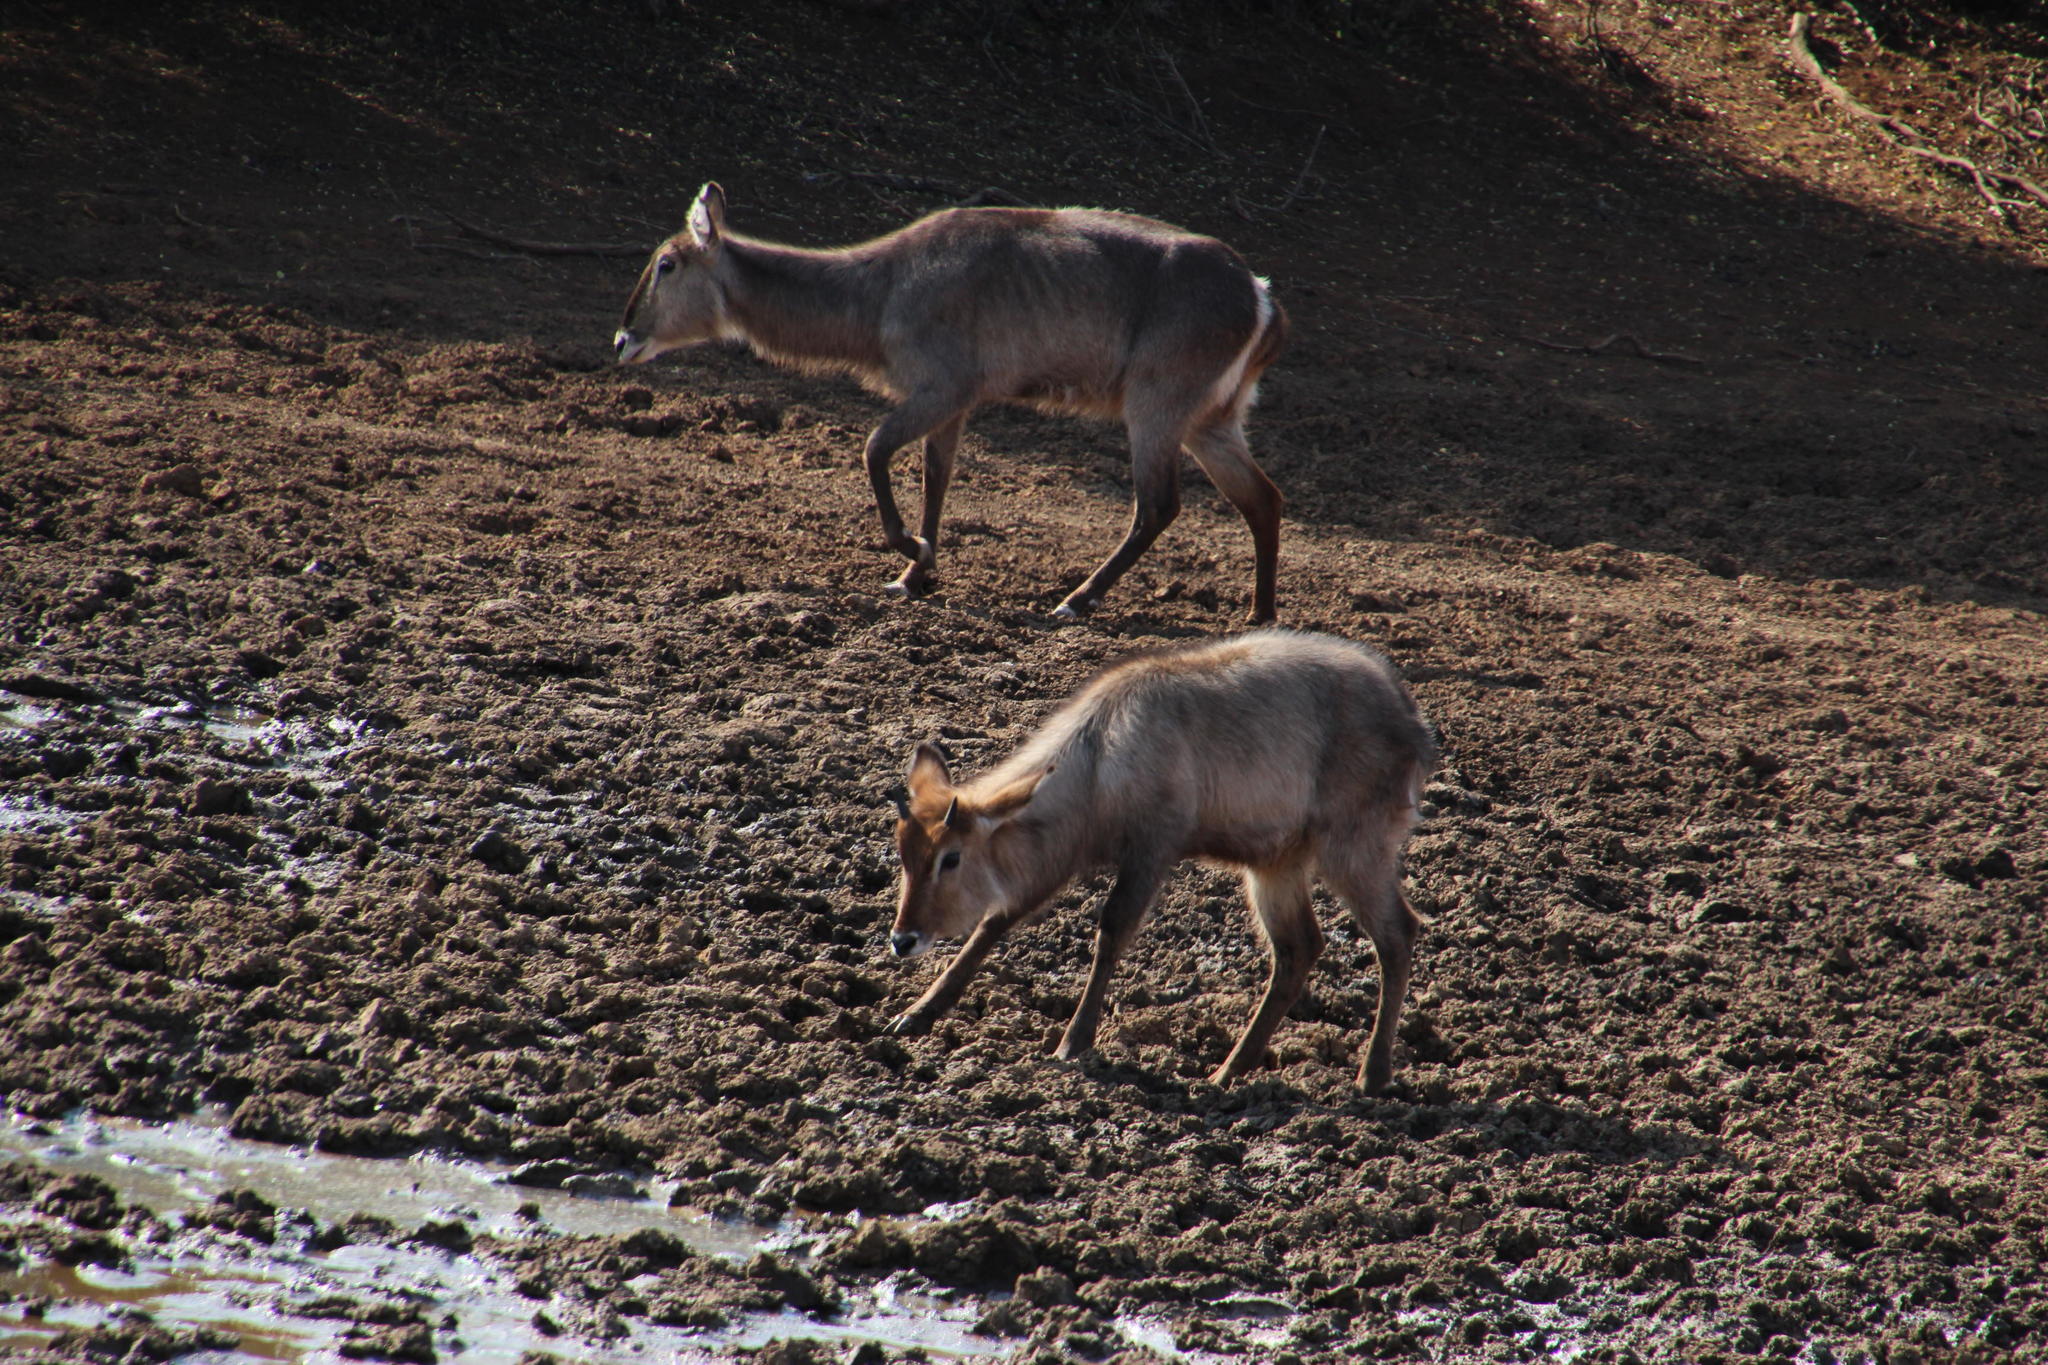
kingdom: Animalia
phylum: Chordata
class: Mammalia
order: Artiodactyla
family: Bovidae
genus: Kobus
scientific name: Kobus ellipsiprymnus
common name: Waterbuck
